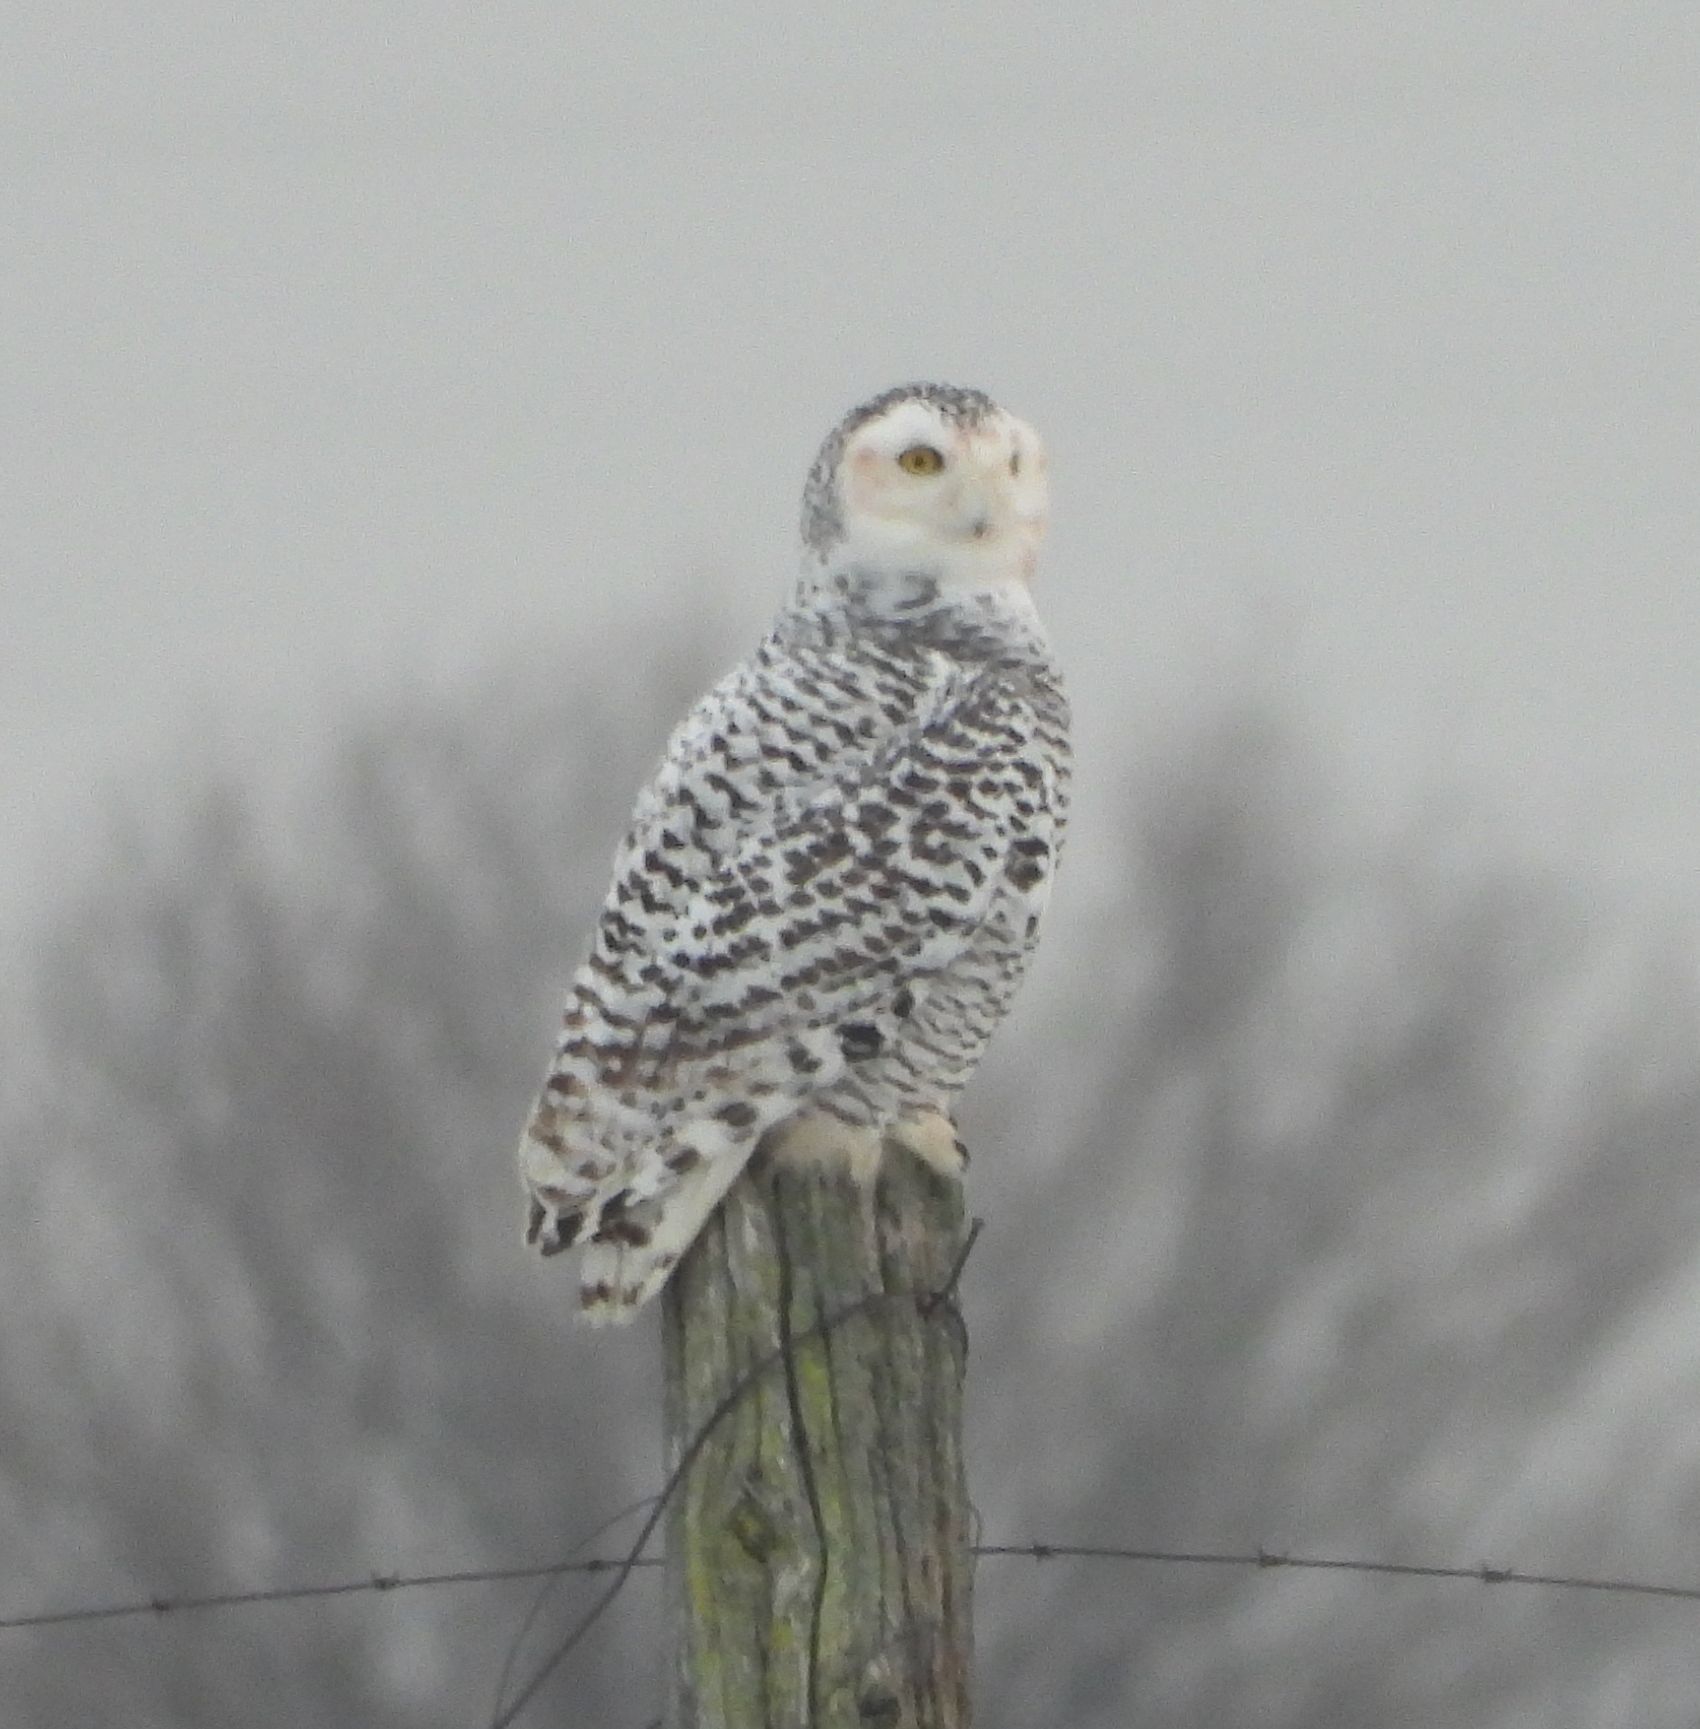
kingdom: Animalia
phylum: Chordata
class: Aves
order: Strigiformes
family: Strigidae
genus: Bubo
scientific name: Bubo scandiacus
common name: Snowy owl
